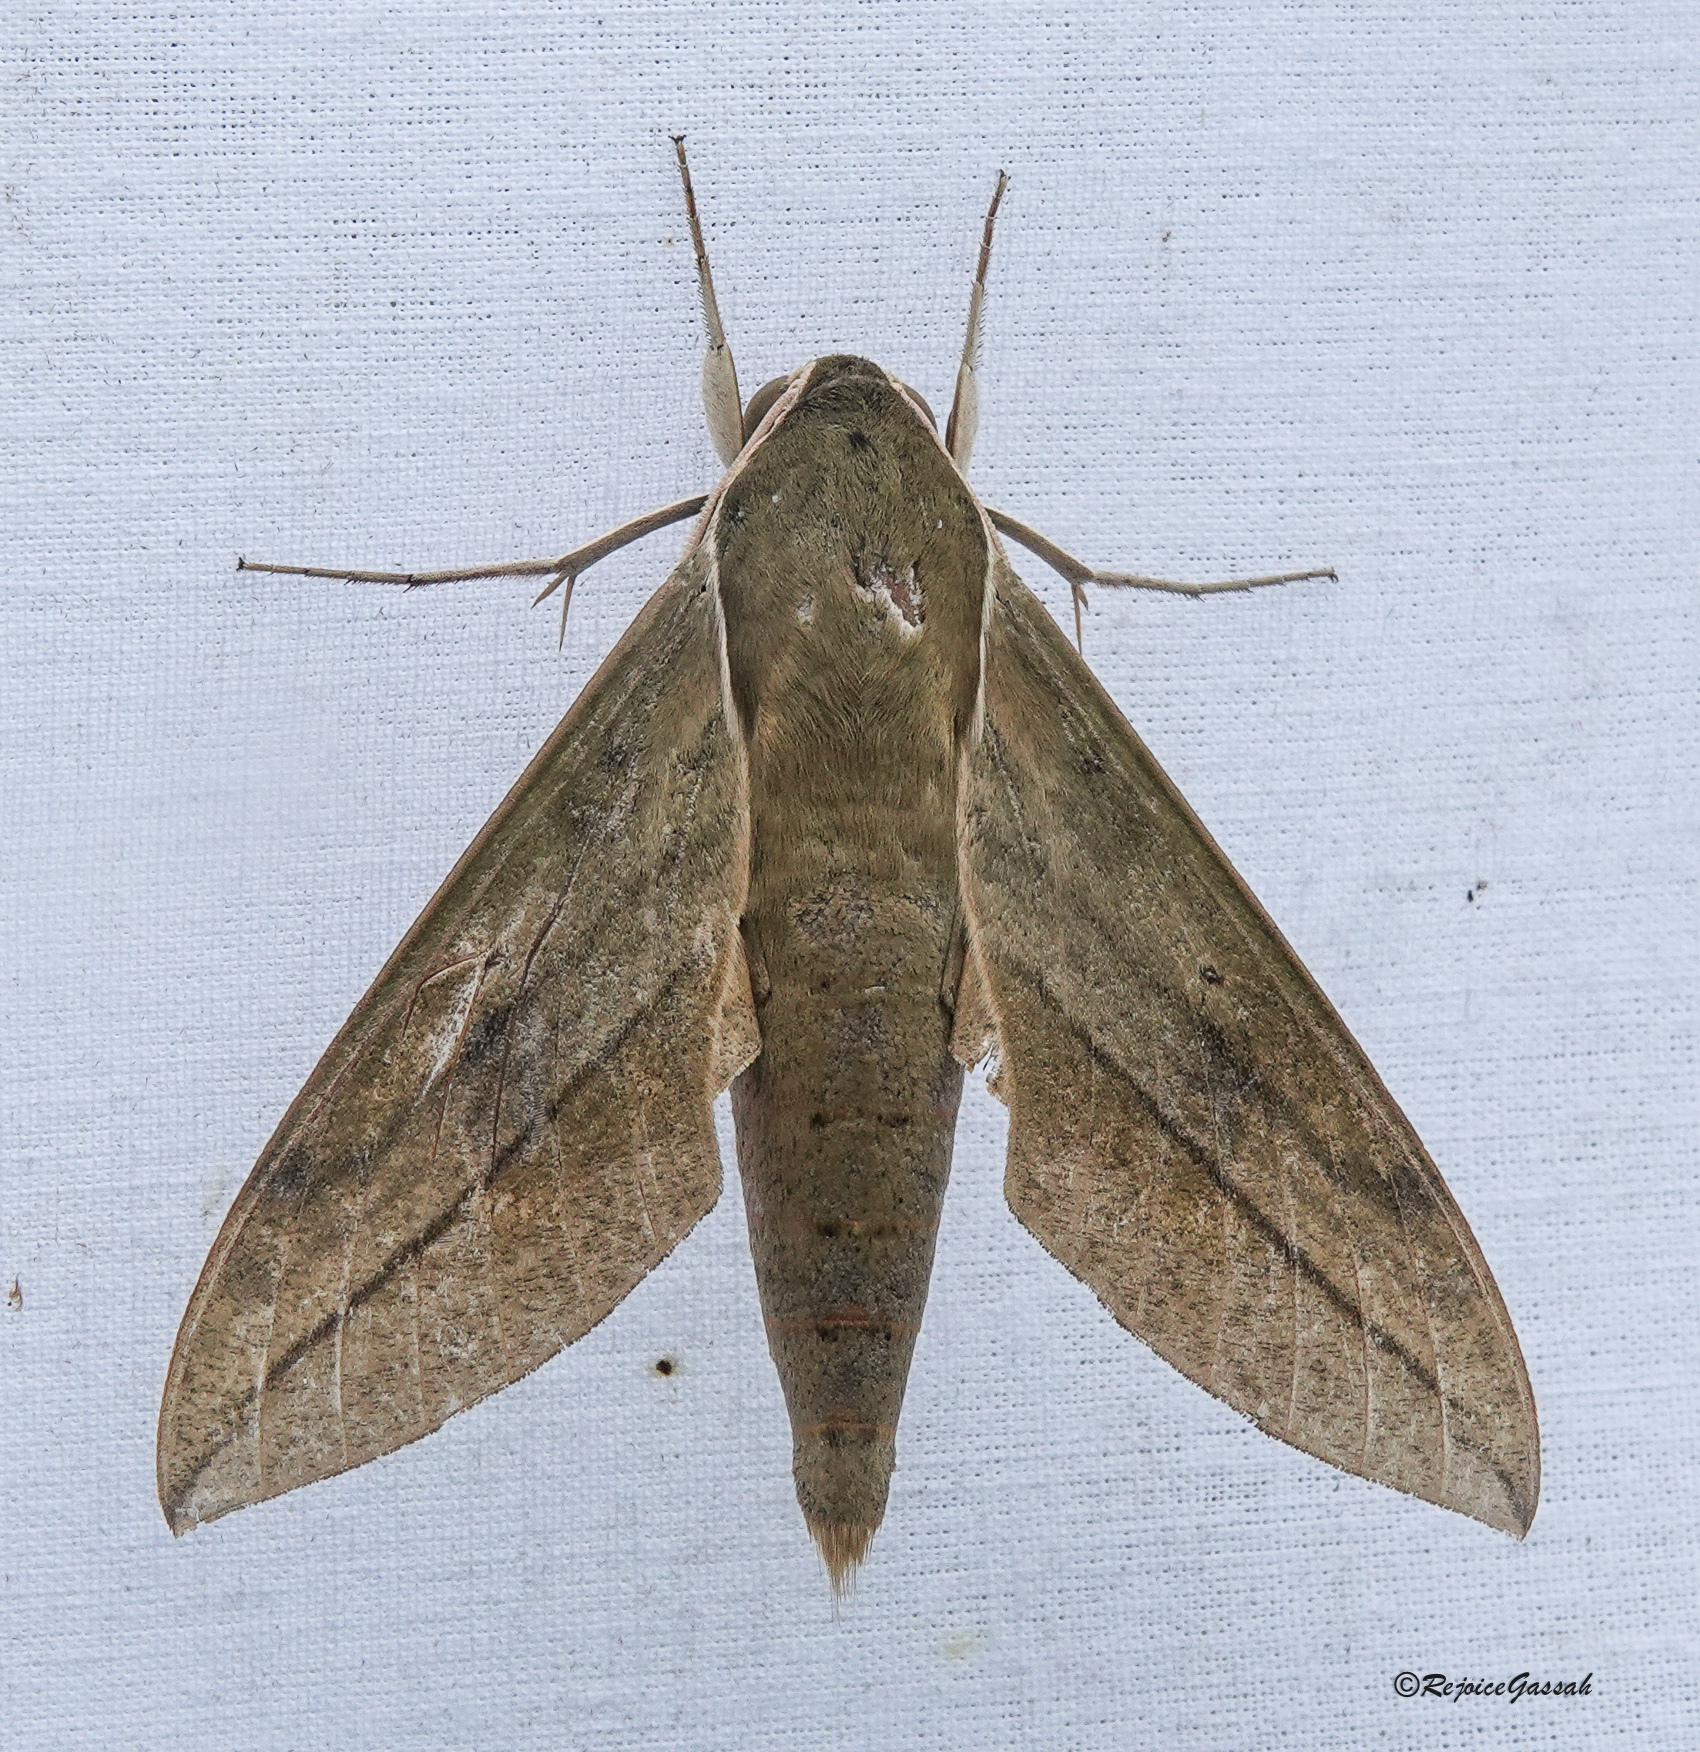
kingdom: Animalia
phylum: Arthropoda
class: Insecta
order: Lepidoptera
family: Sphingidae
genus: Theretra
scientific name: Theretra clotho
